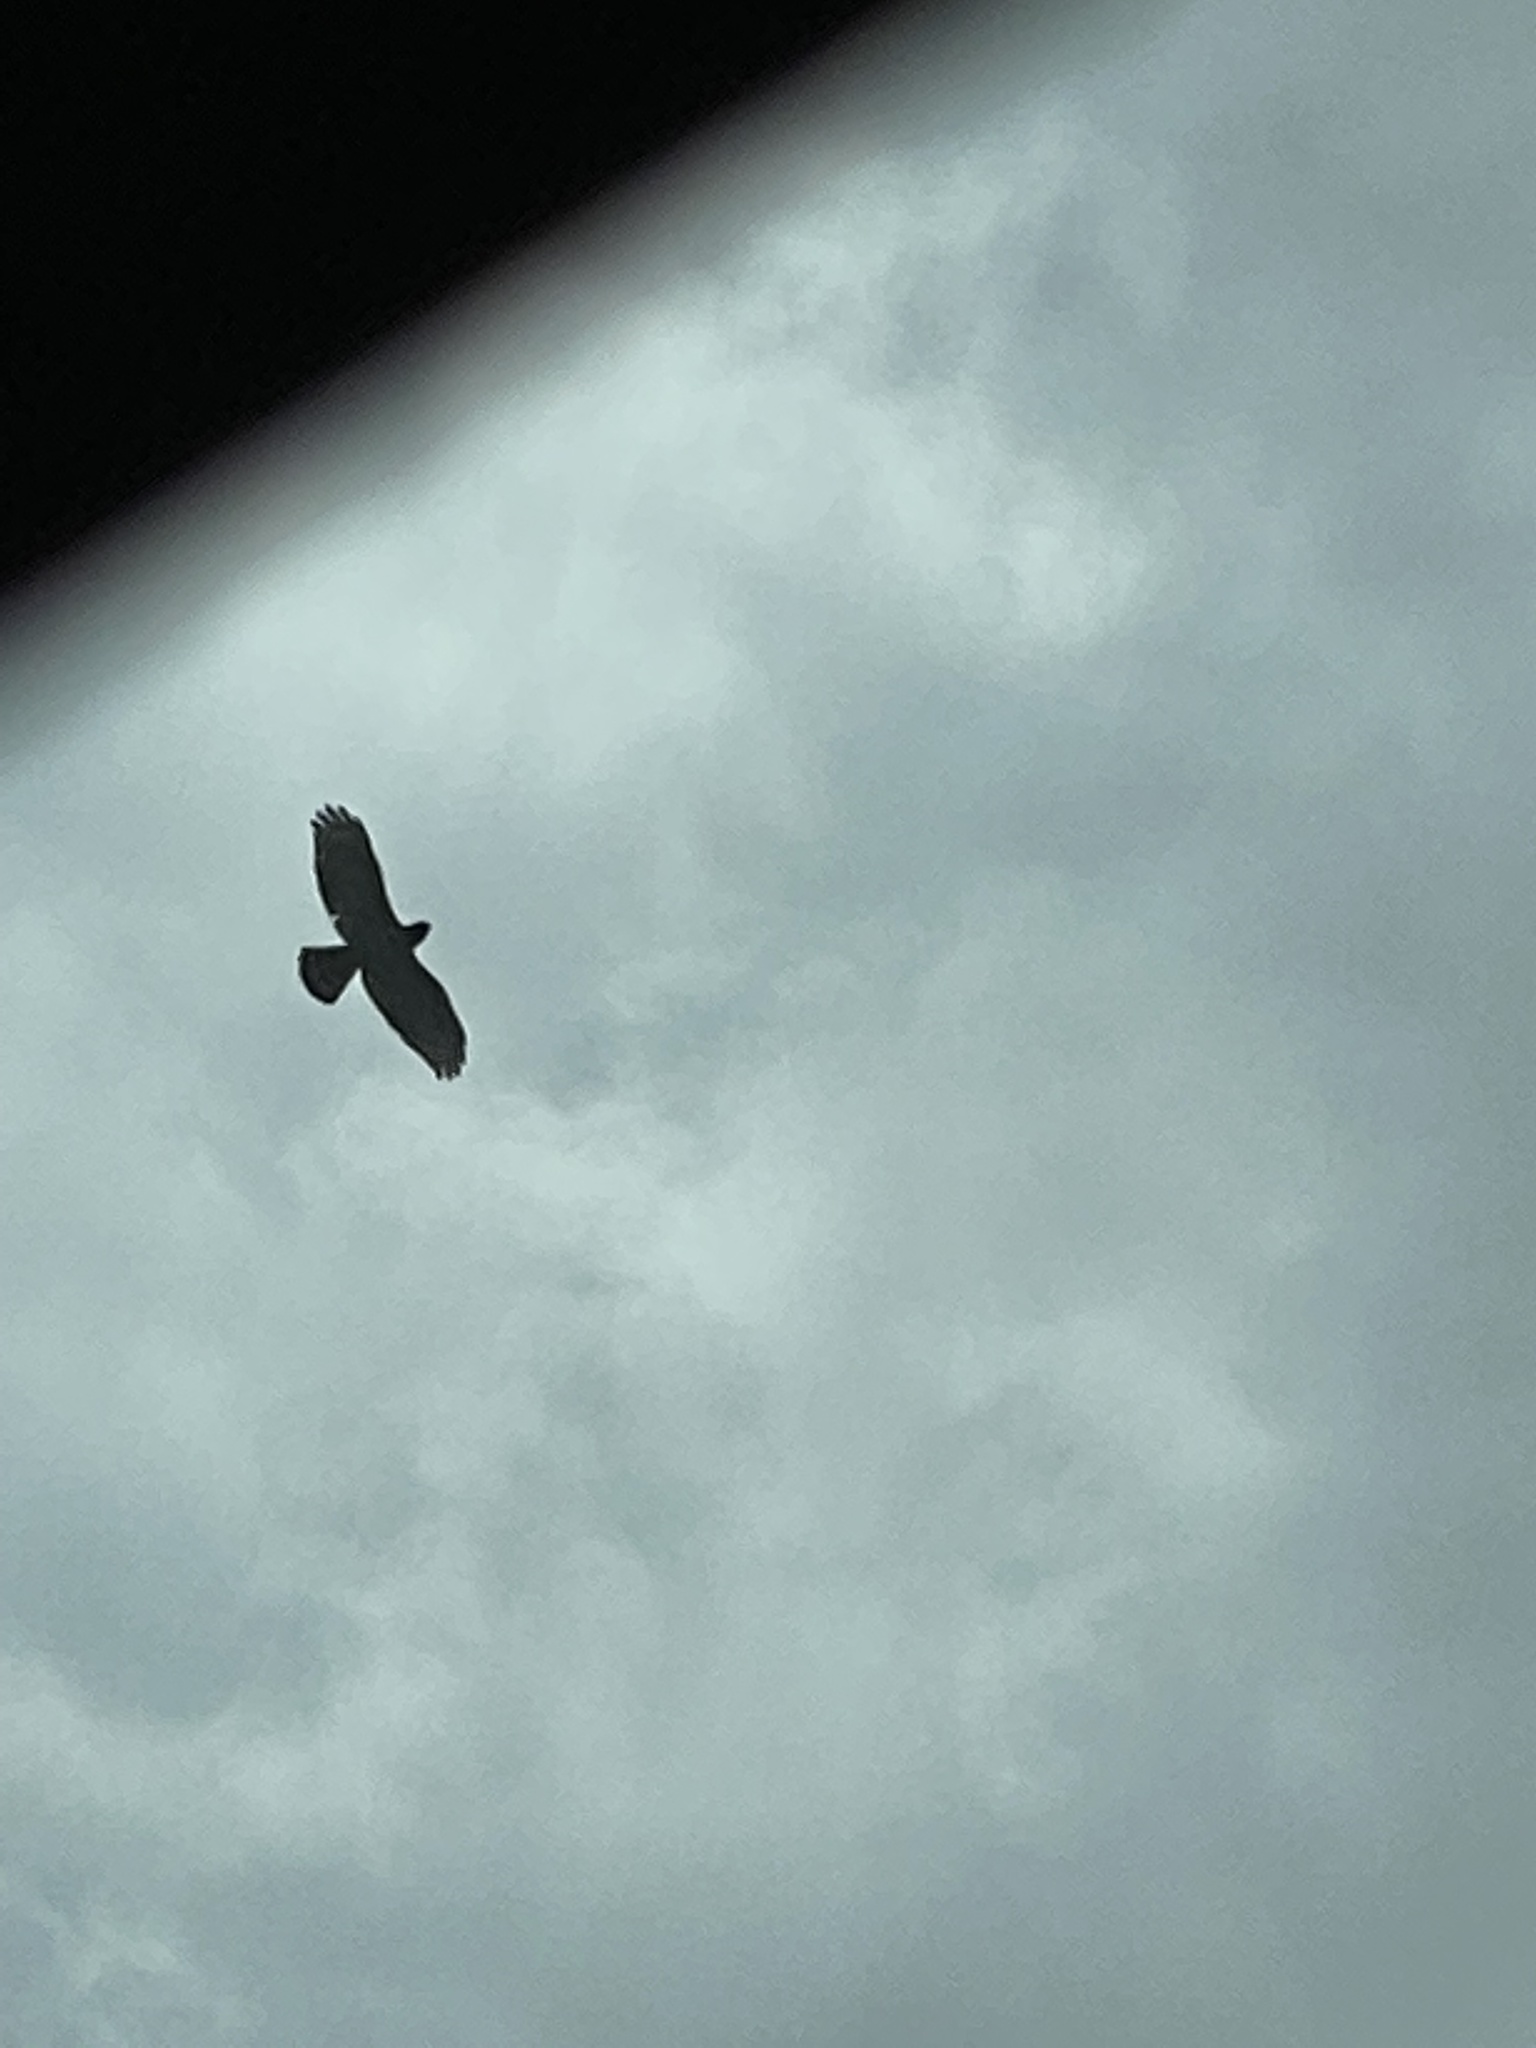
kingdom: Animalia
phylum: Chordata
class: Aves
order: Accipitriformes
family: Accipitridae
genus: Buteo
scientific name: Buteo lineatus
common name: Red-shouldered hawk
